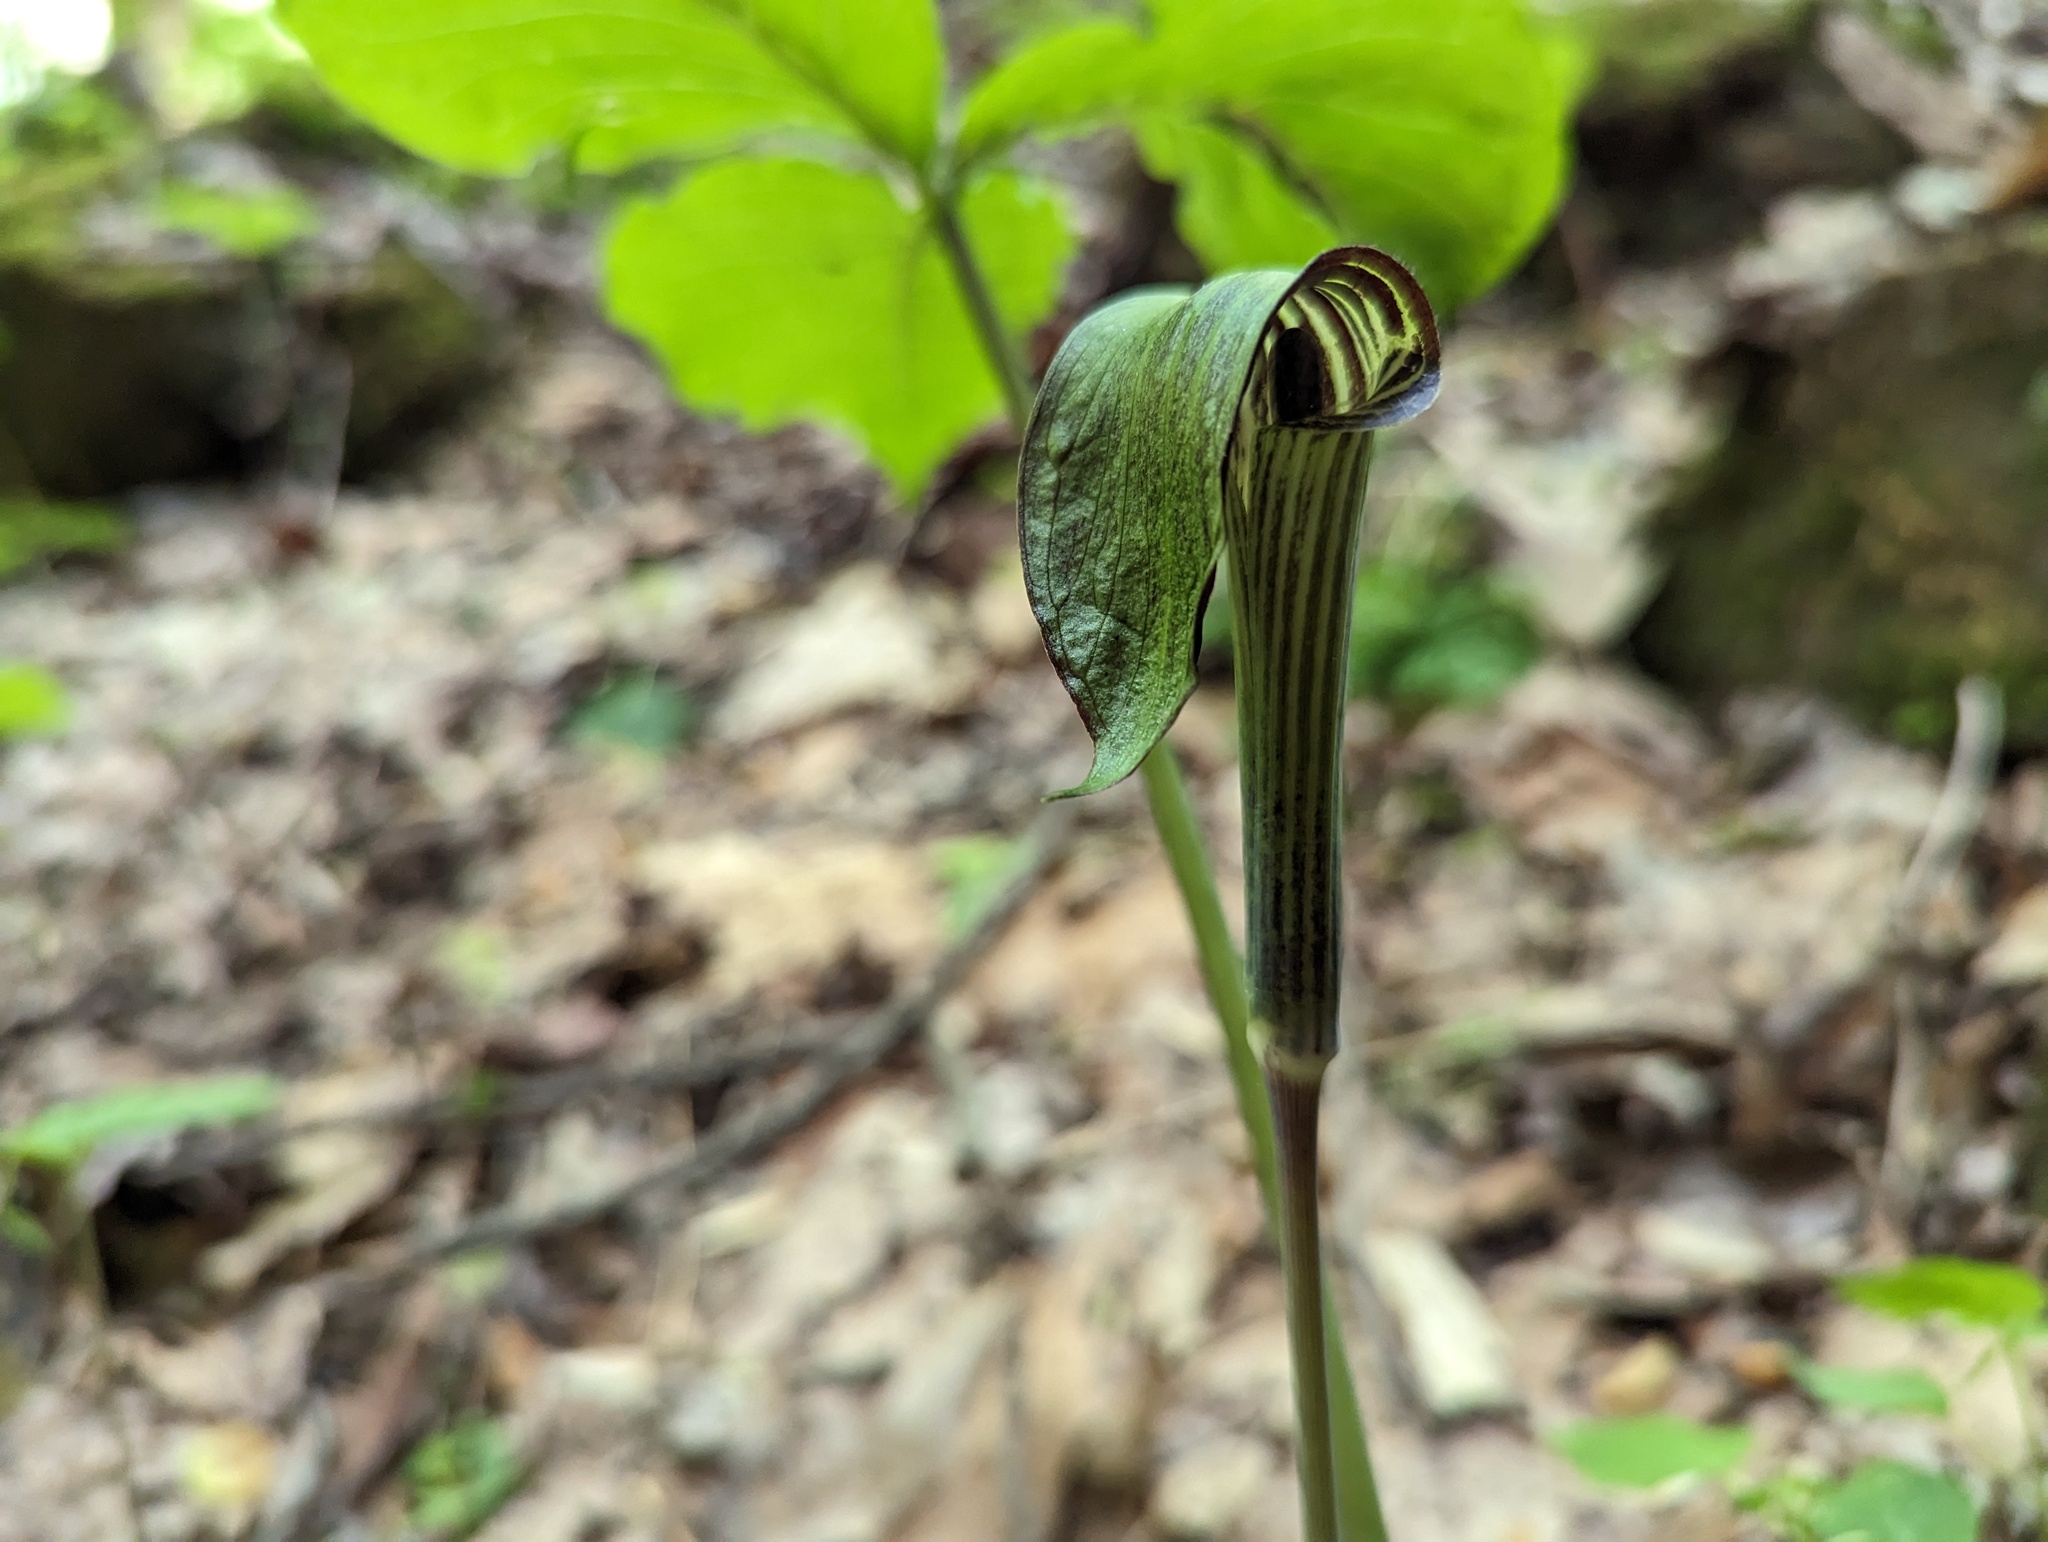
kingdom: Plantae
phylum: Tracheophyta
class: Liliopsida
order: Alismatales
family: Araceae
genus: Arisaema
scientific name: Arisaema pusillum
